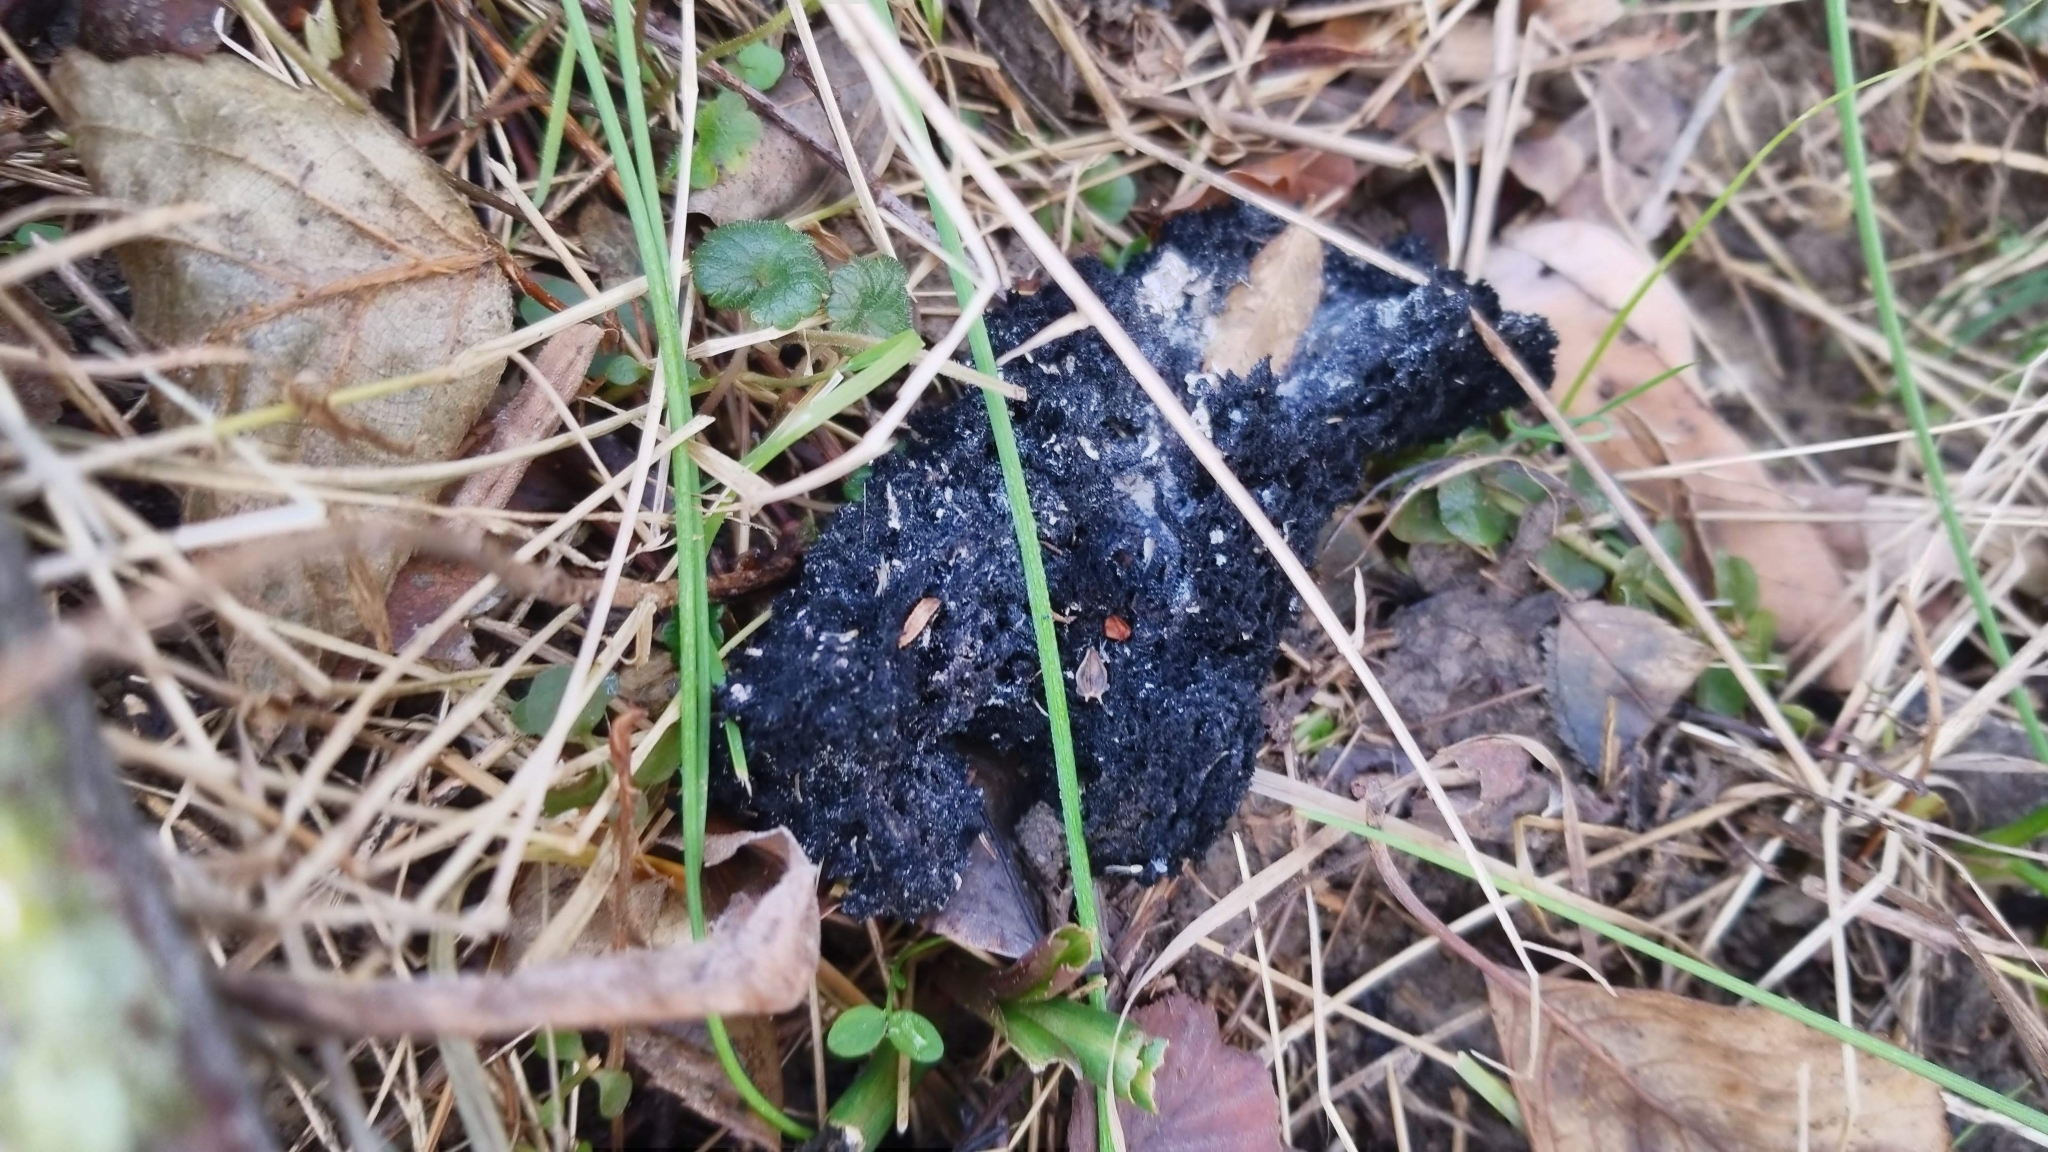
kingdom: Fungi
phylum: Ascomycota
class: Dothideomycetes
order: Capnodiales
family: Capnodiaceae
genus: Scorias
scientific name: Scorias spongiosa
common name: Black sooty mold
